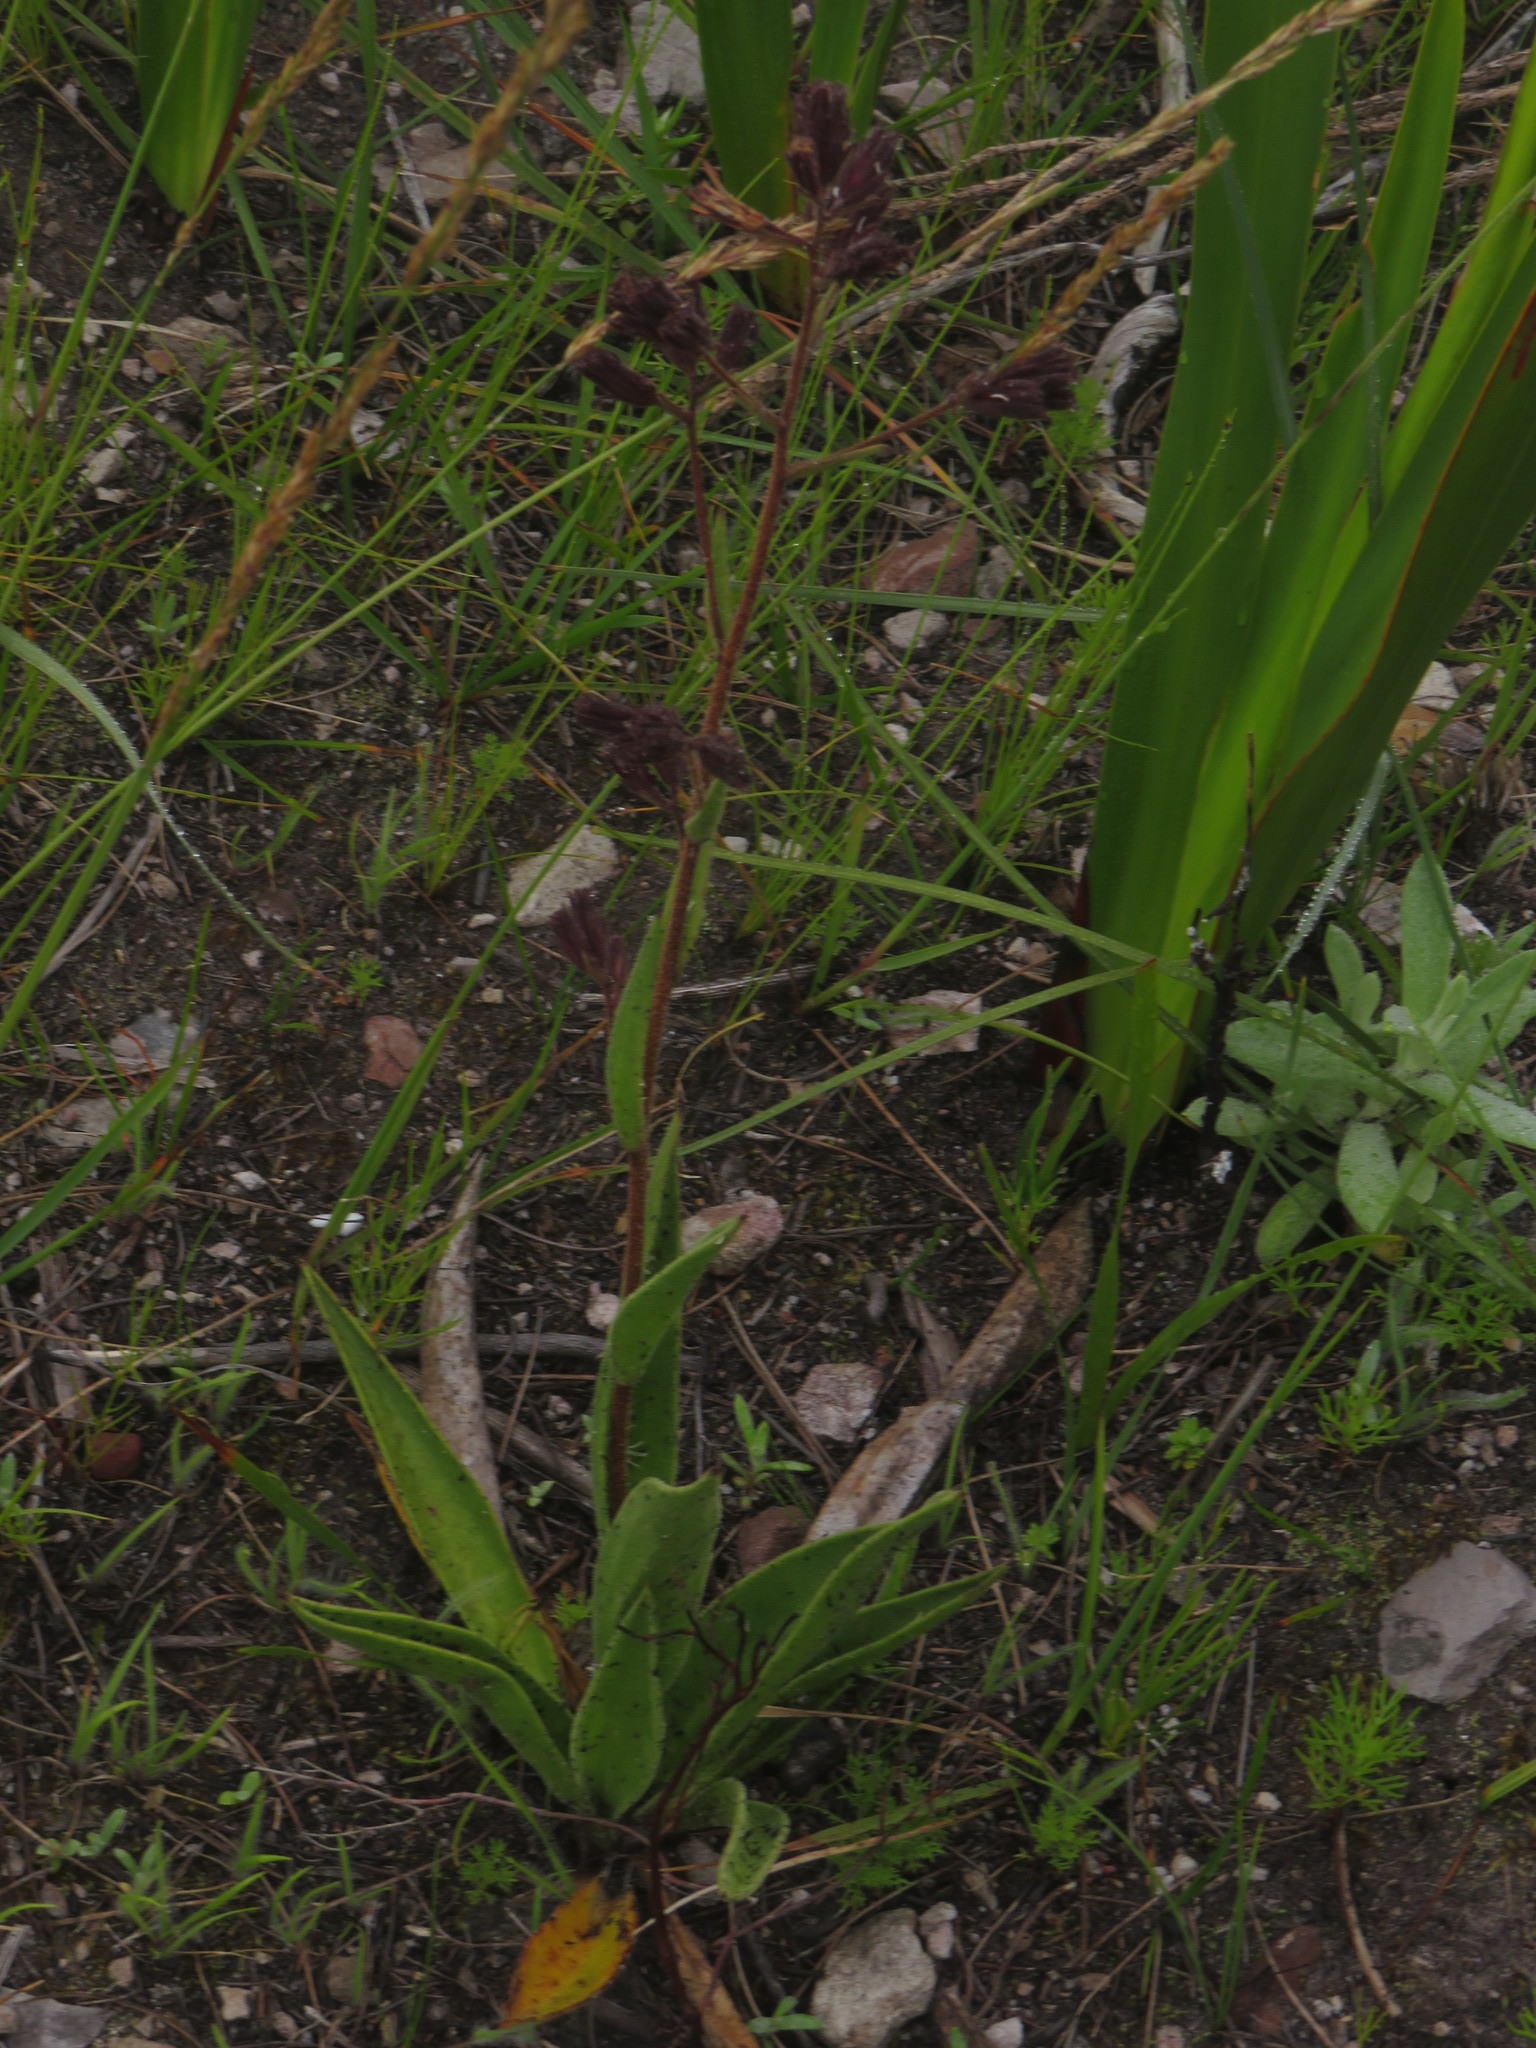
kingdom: Plantae
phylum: Tracheophyta
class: Magnoliopsida
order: Asterales
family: Asteraceae
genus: Corymbium
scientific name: Corymbium congestum
